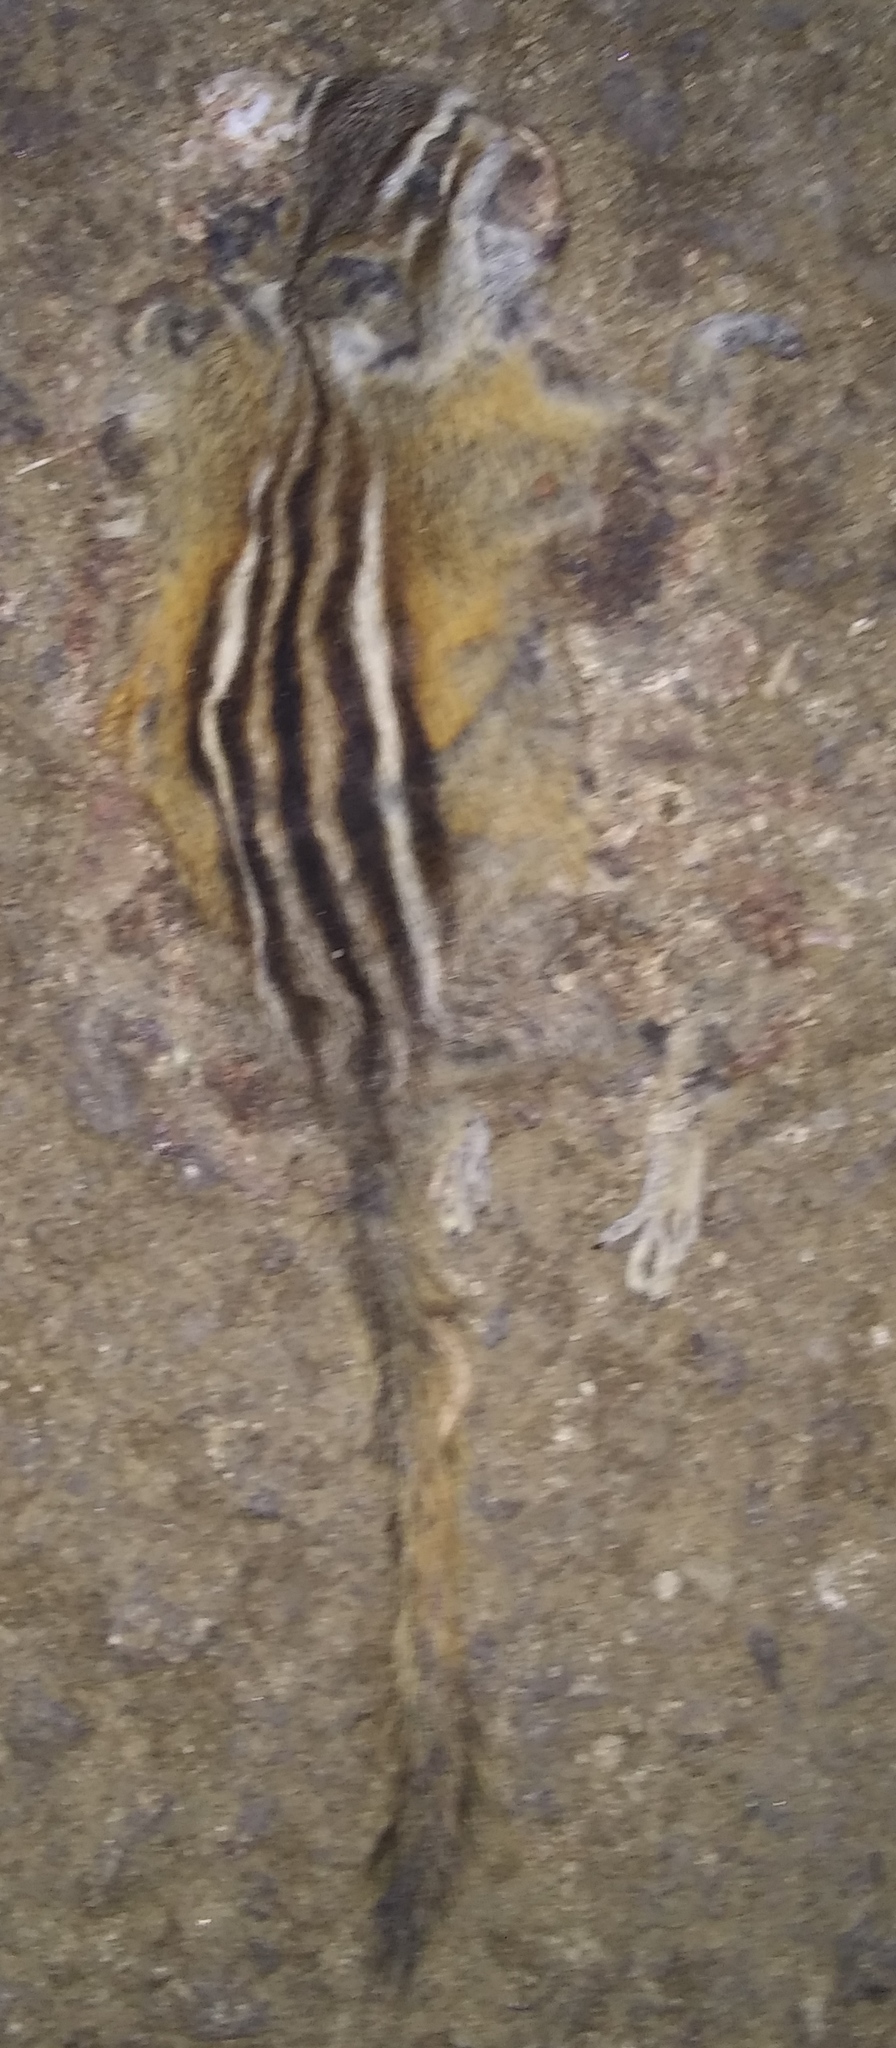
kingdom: Animalia
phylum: Chordata
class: Mammalia
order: Rodentia
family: Sciuridae
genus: Tamias
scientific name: Tamias minimus
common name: Least chipmunk
